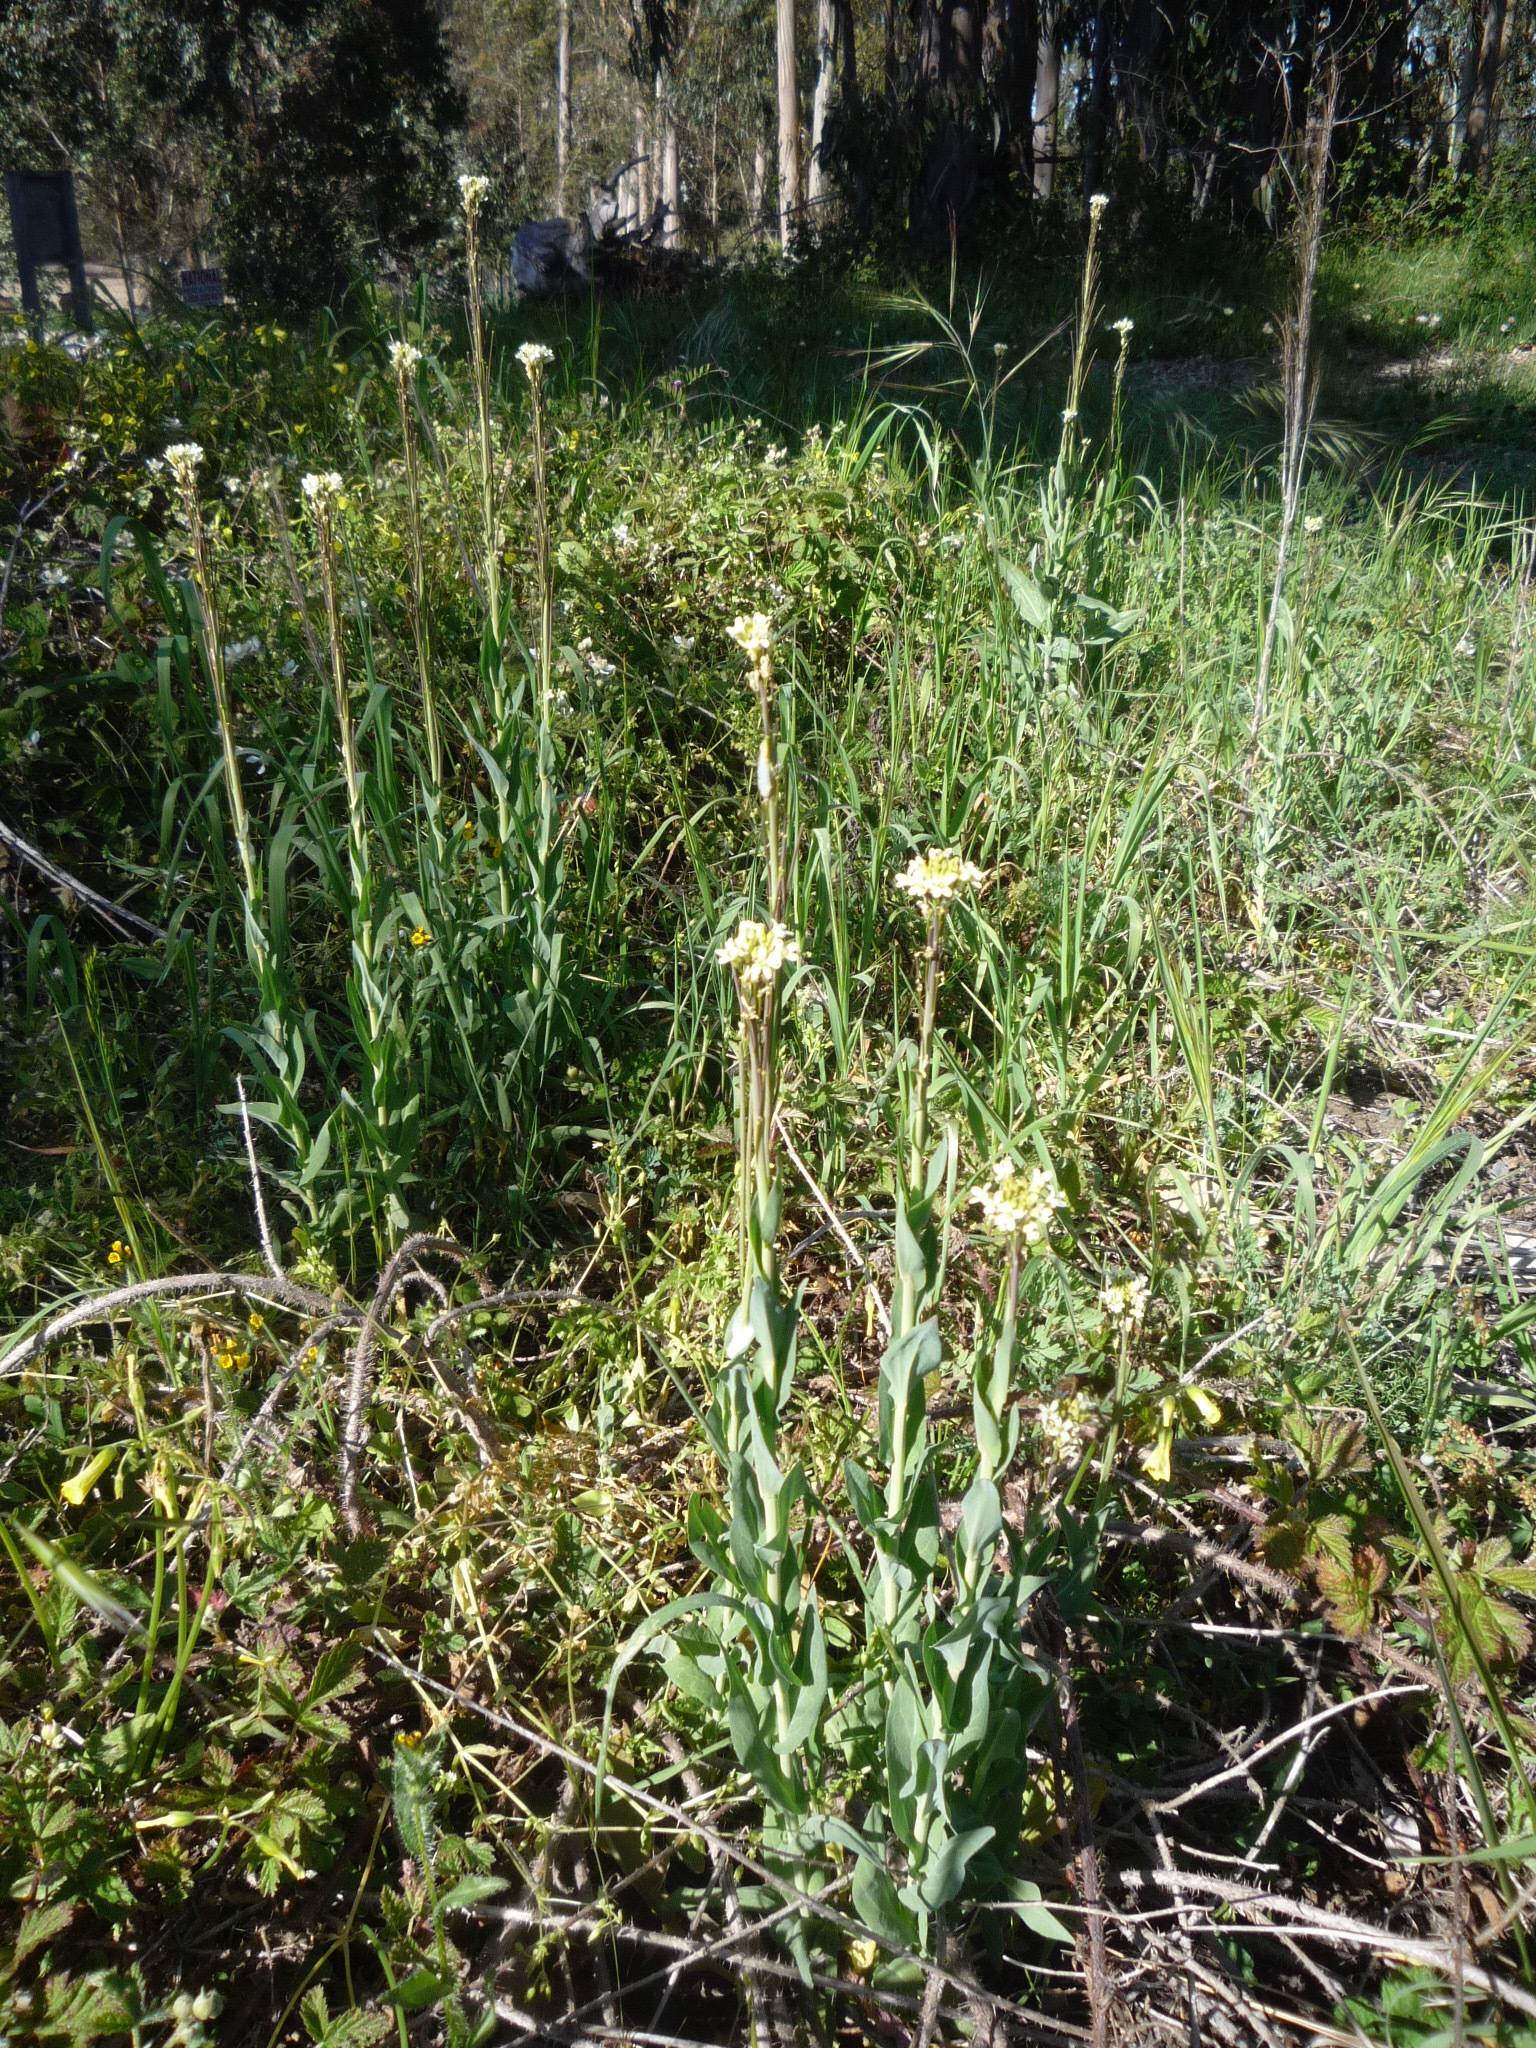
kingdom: Plantae
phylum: Tracheophyta
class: Magnoliopsida
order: Brassicales
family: Brassicaceae
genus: Turritis
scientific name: Turritis glabra
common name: Tower rockcress
